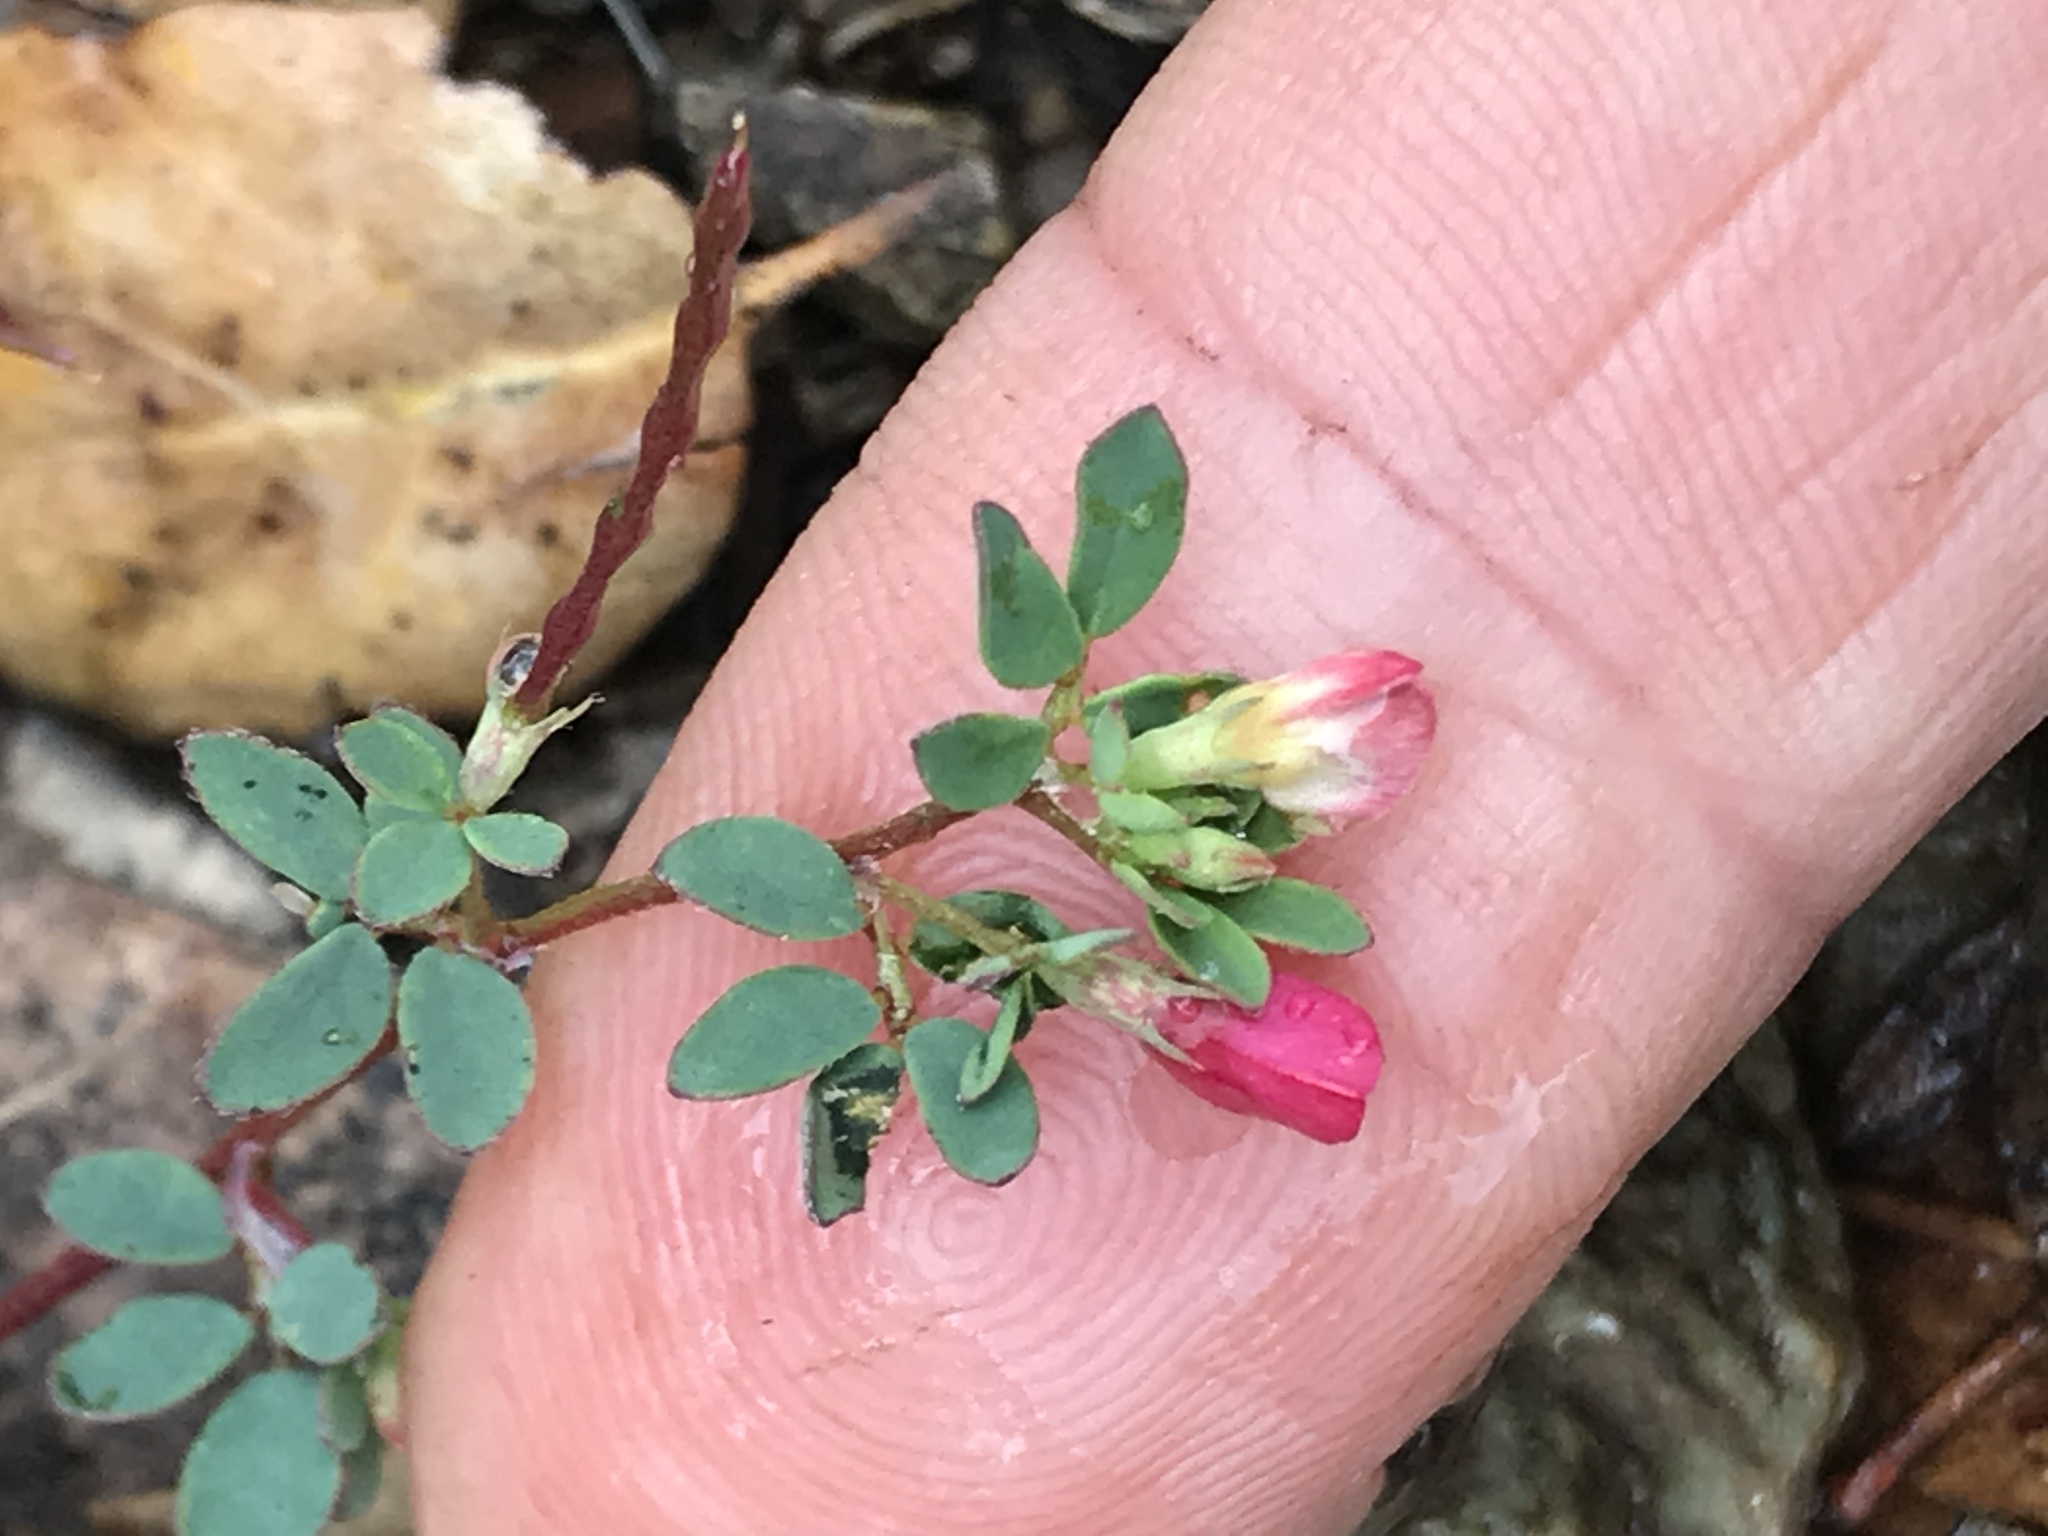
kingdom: Plantae
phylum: Tracheophyta
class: Magnoliopsida
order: Fabales
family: Fabaceae
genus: Acmispon
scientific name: Acmispon parviflorus
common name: Desert deer-vetch
